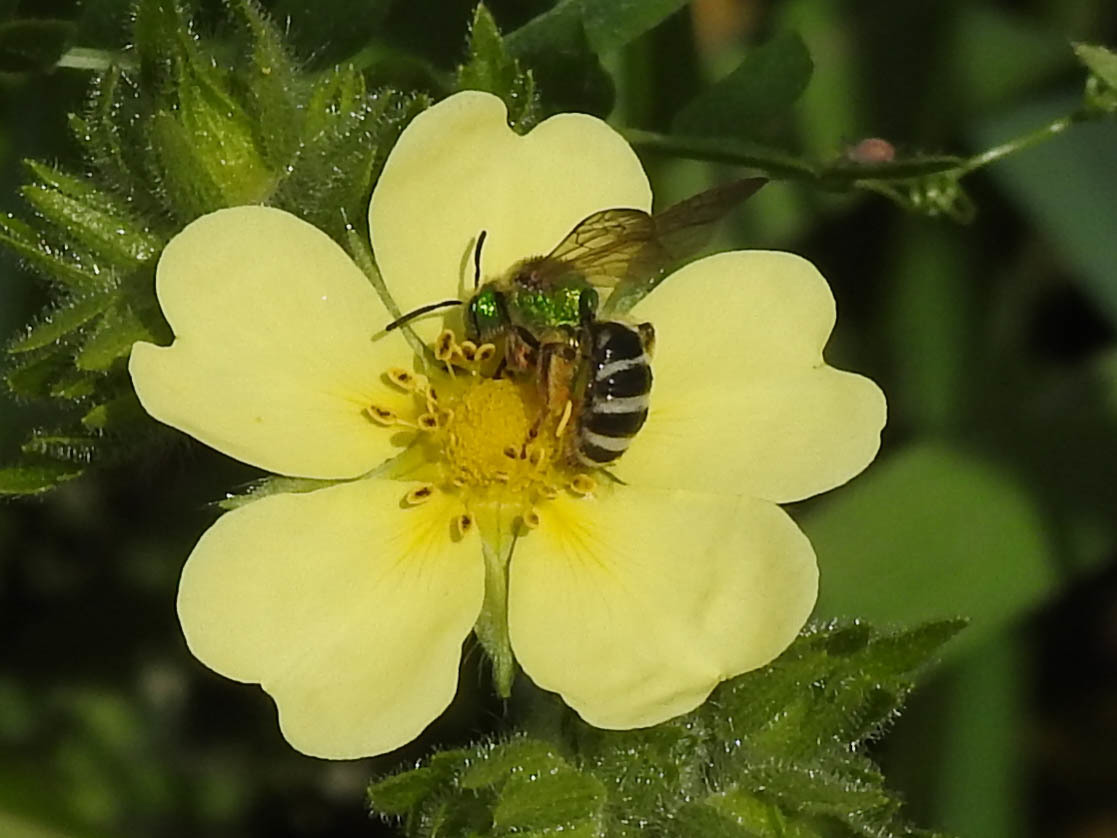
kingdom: Animalia
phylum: Arthropoda
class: Insecta
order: Hymenoptera
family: Halictidae
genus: Agapostemon
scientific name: Agapostemon virescens
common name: Bicolored striped sweat bee
